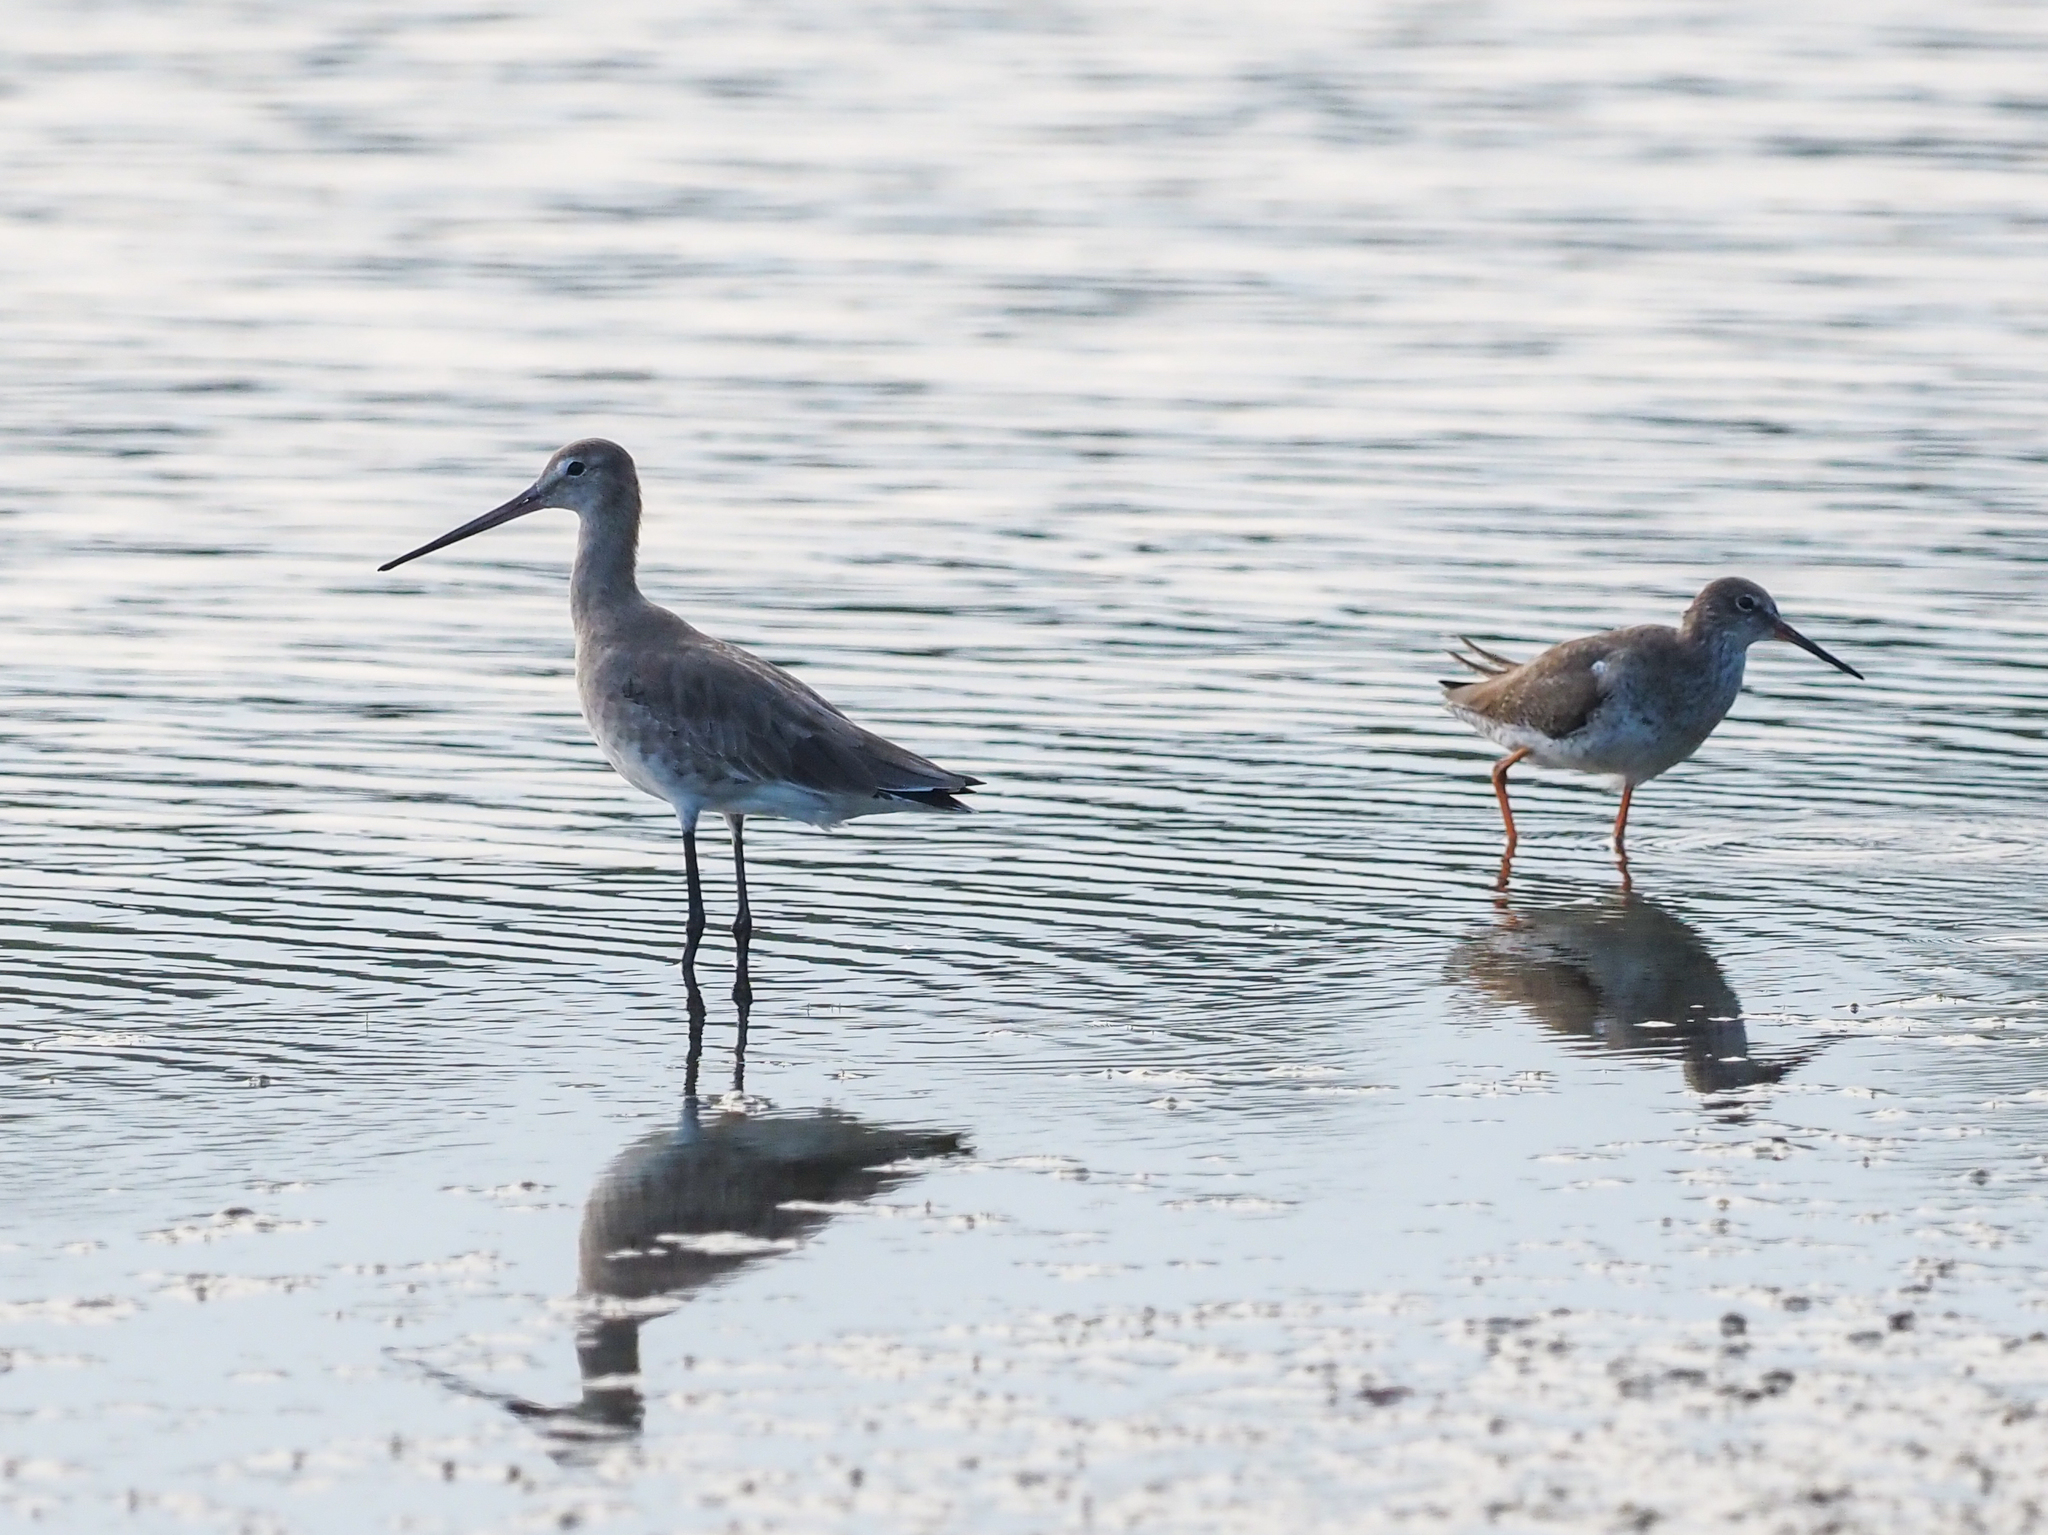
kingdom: Animalia
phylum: Chordata
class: Aves
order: Charadriiformes
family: Scolopacidae
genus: Limosa
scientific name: Limosa limosa
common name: Black-tailed godwit
